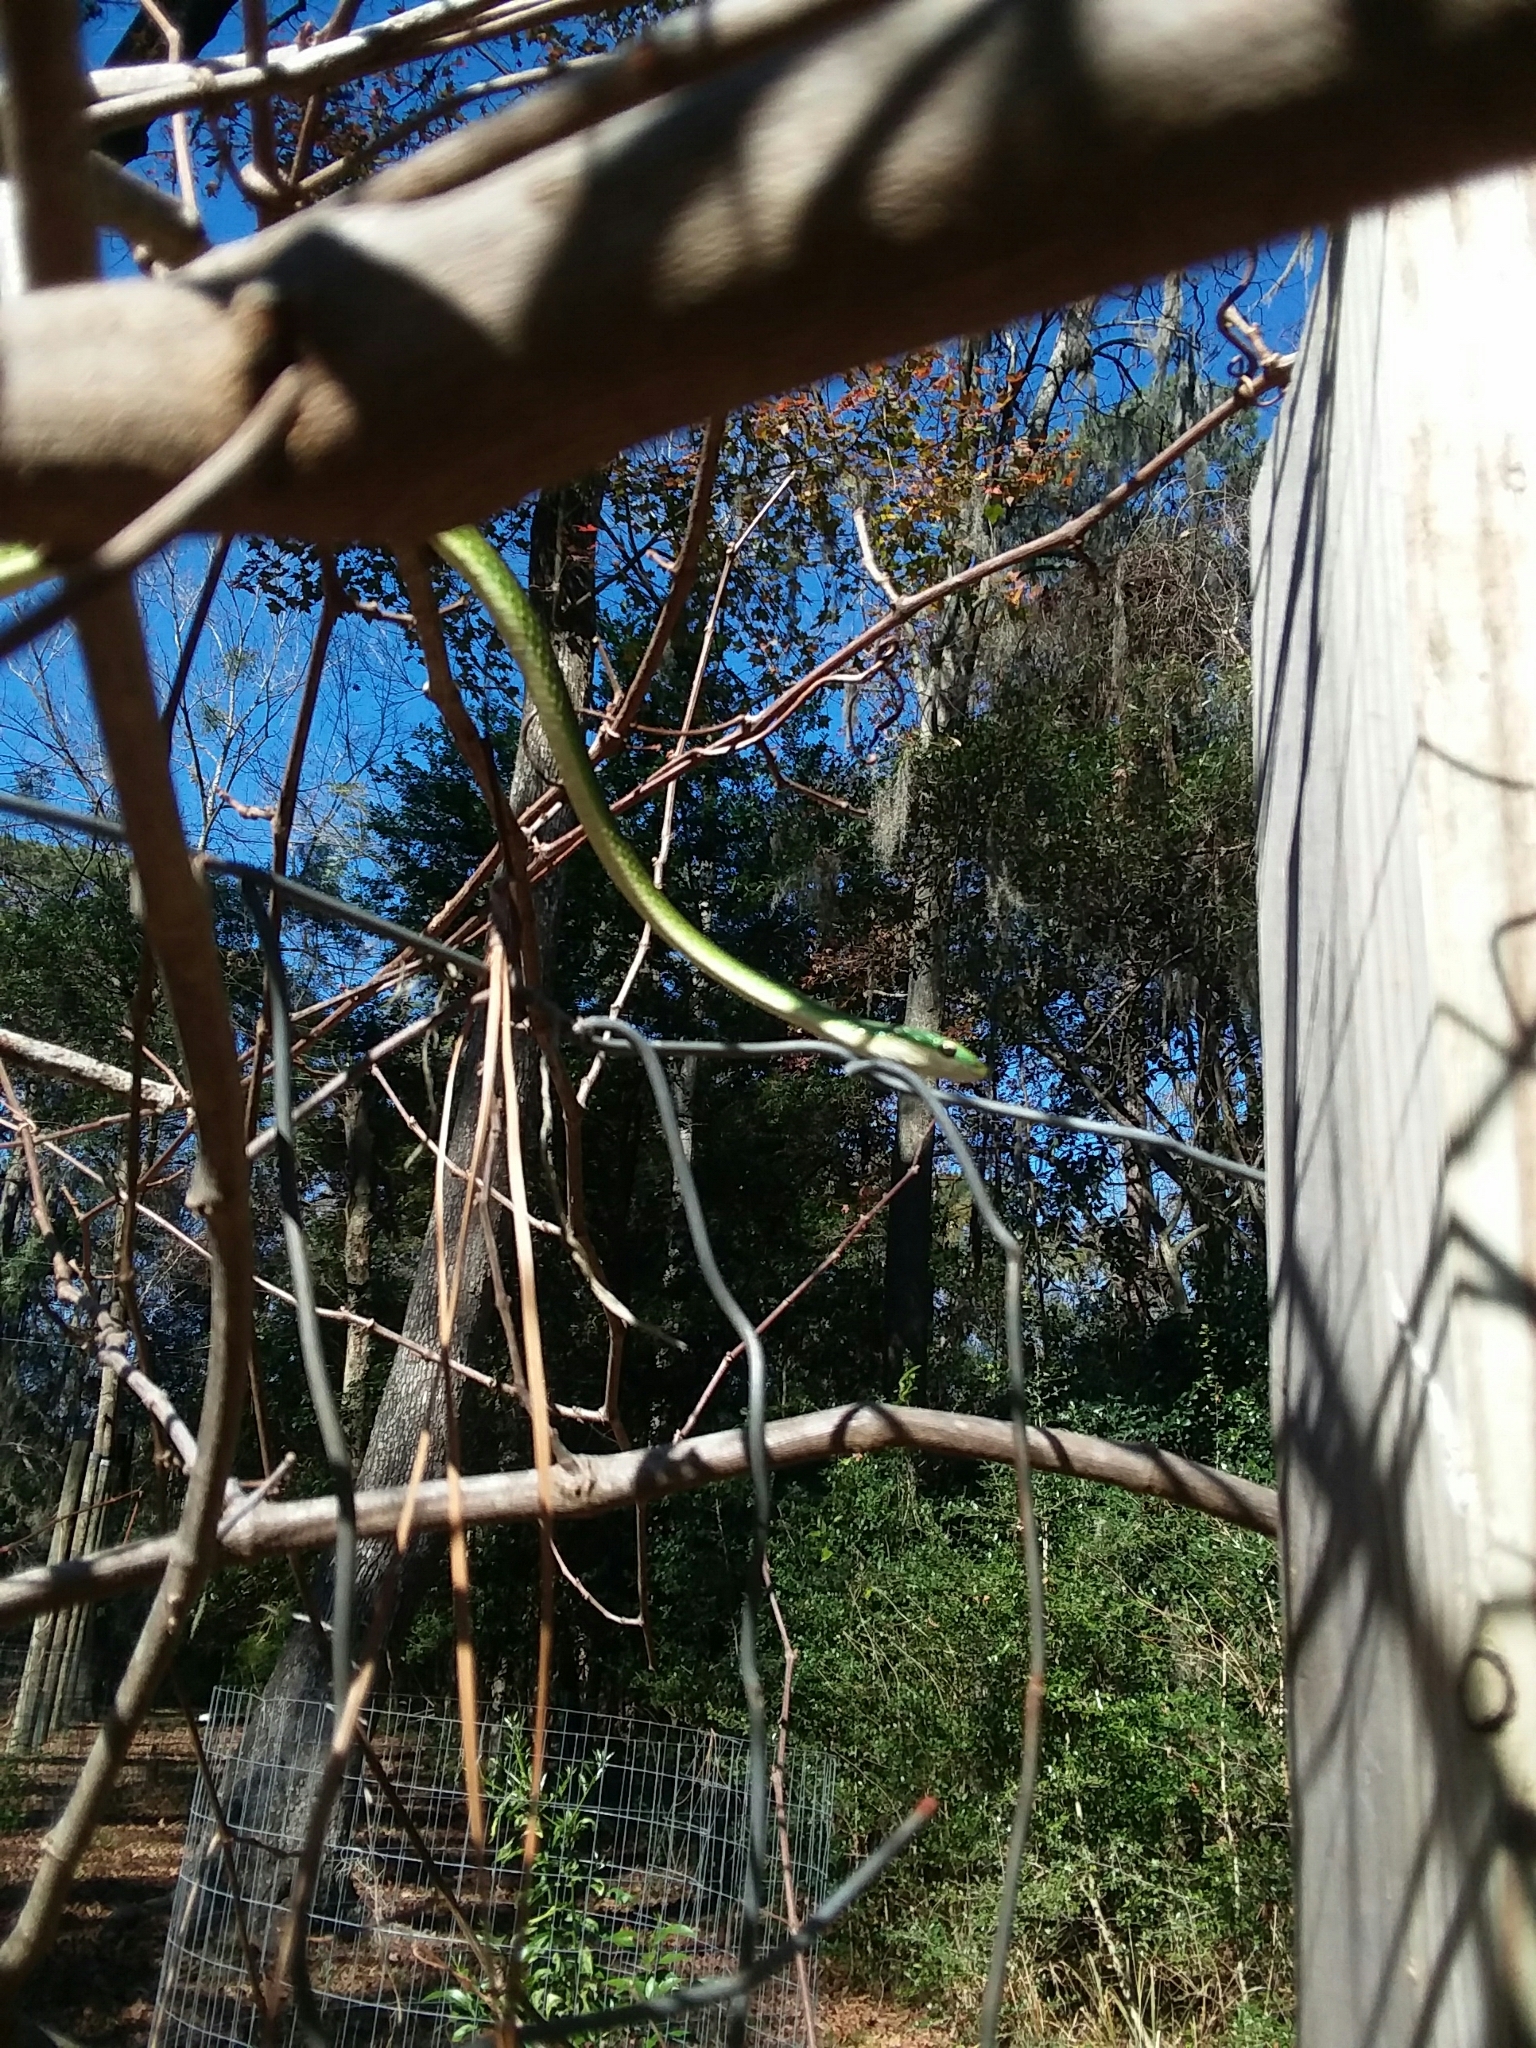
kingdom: Animalia
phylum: Chordata
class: Squamata
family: Colubridae
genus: Opheodrys
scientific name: Opheodrys aestivus
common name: Rough greensnake
